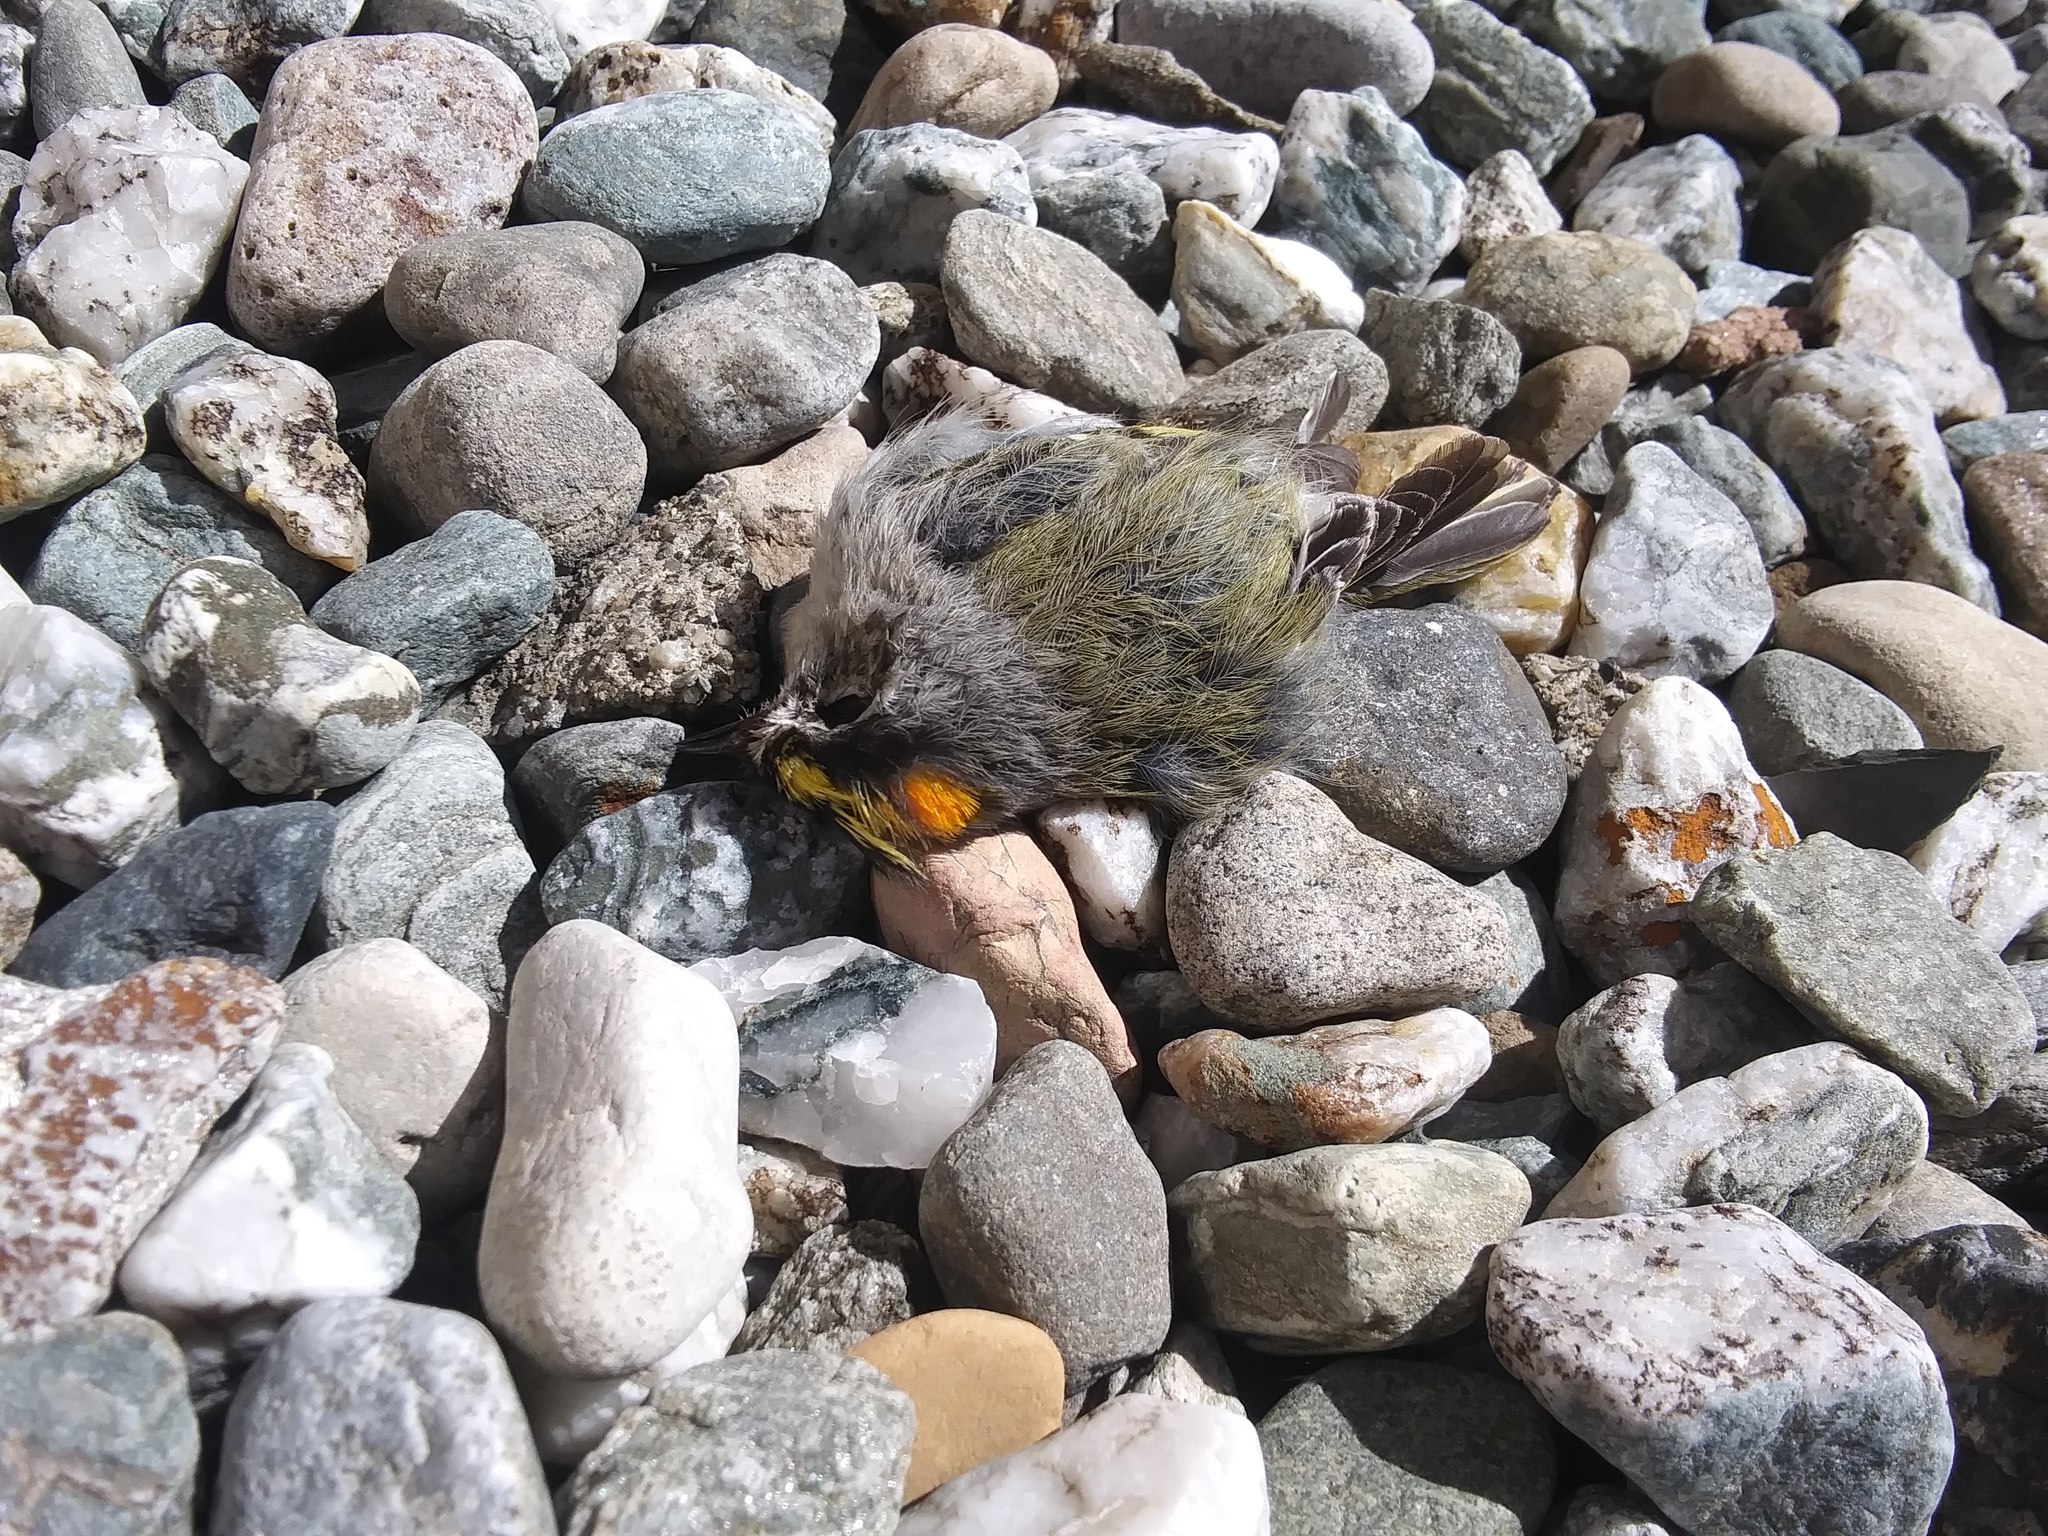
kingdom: Animalia
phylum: Chordata
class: Aves
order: Passeriformes
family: Regulidae
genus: Regulus
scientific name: Regulus satrapa
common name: Golden-crowned kinglet
